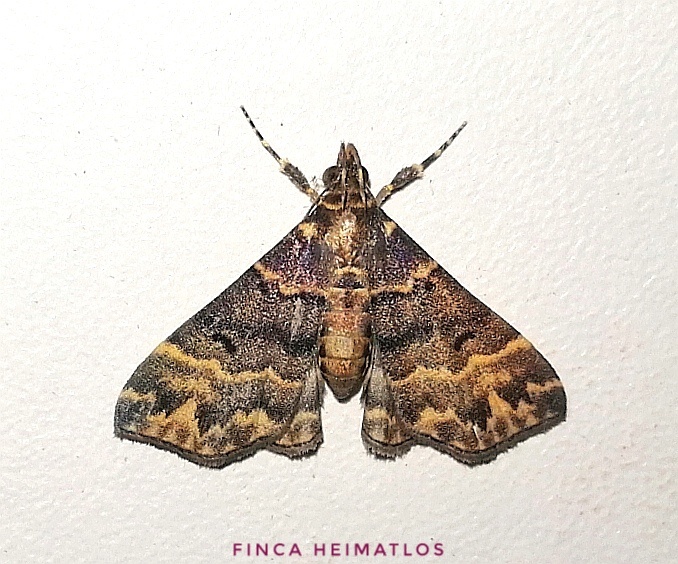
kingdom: Animalia
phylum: Arthropoda
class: Insecta
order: Lepidoptera
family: Erebidae
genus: Thursania
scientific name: Thursania renilinealis
